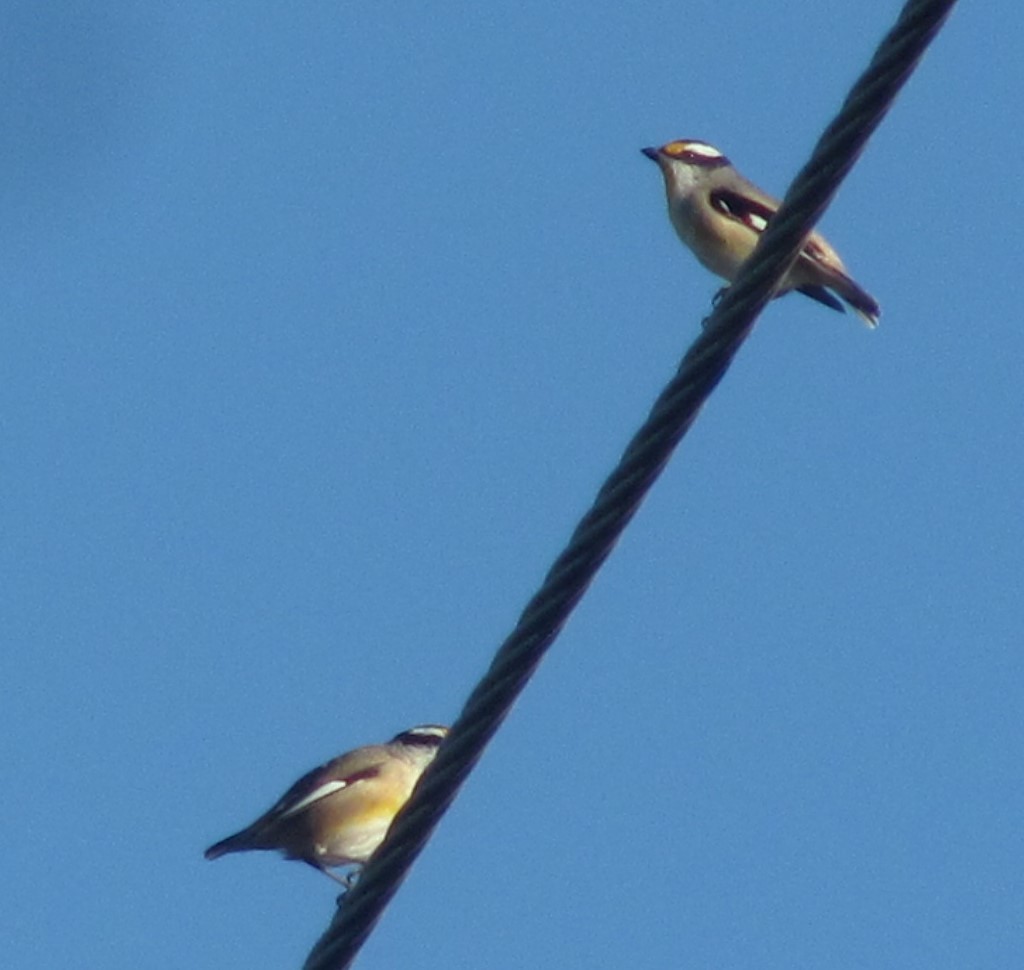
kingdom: Animalia
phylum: Chordata
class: Aves
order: Passeriformes
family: Pardalotidae
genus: Pardalotus
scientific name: Pardalotus striatus
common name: Striated pardalote
